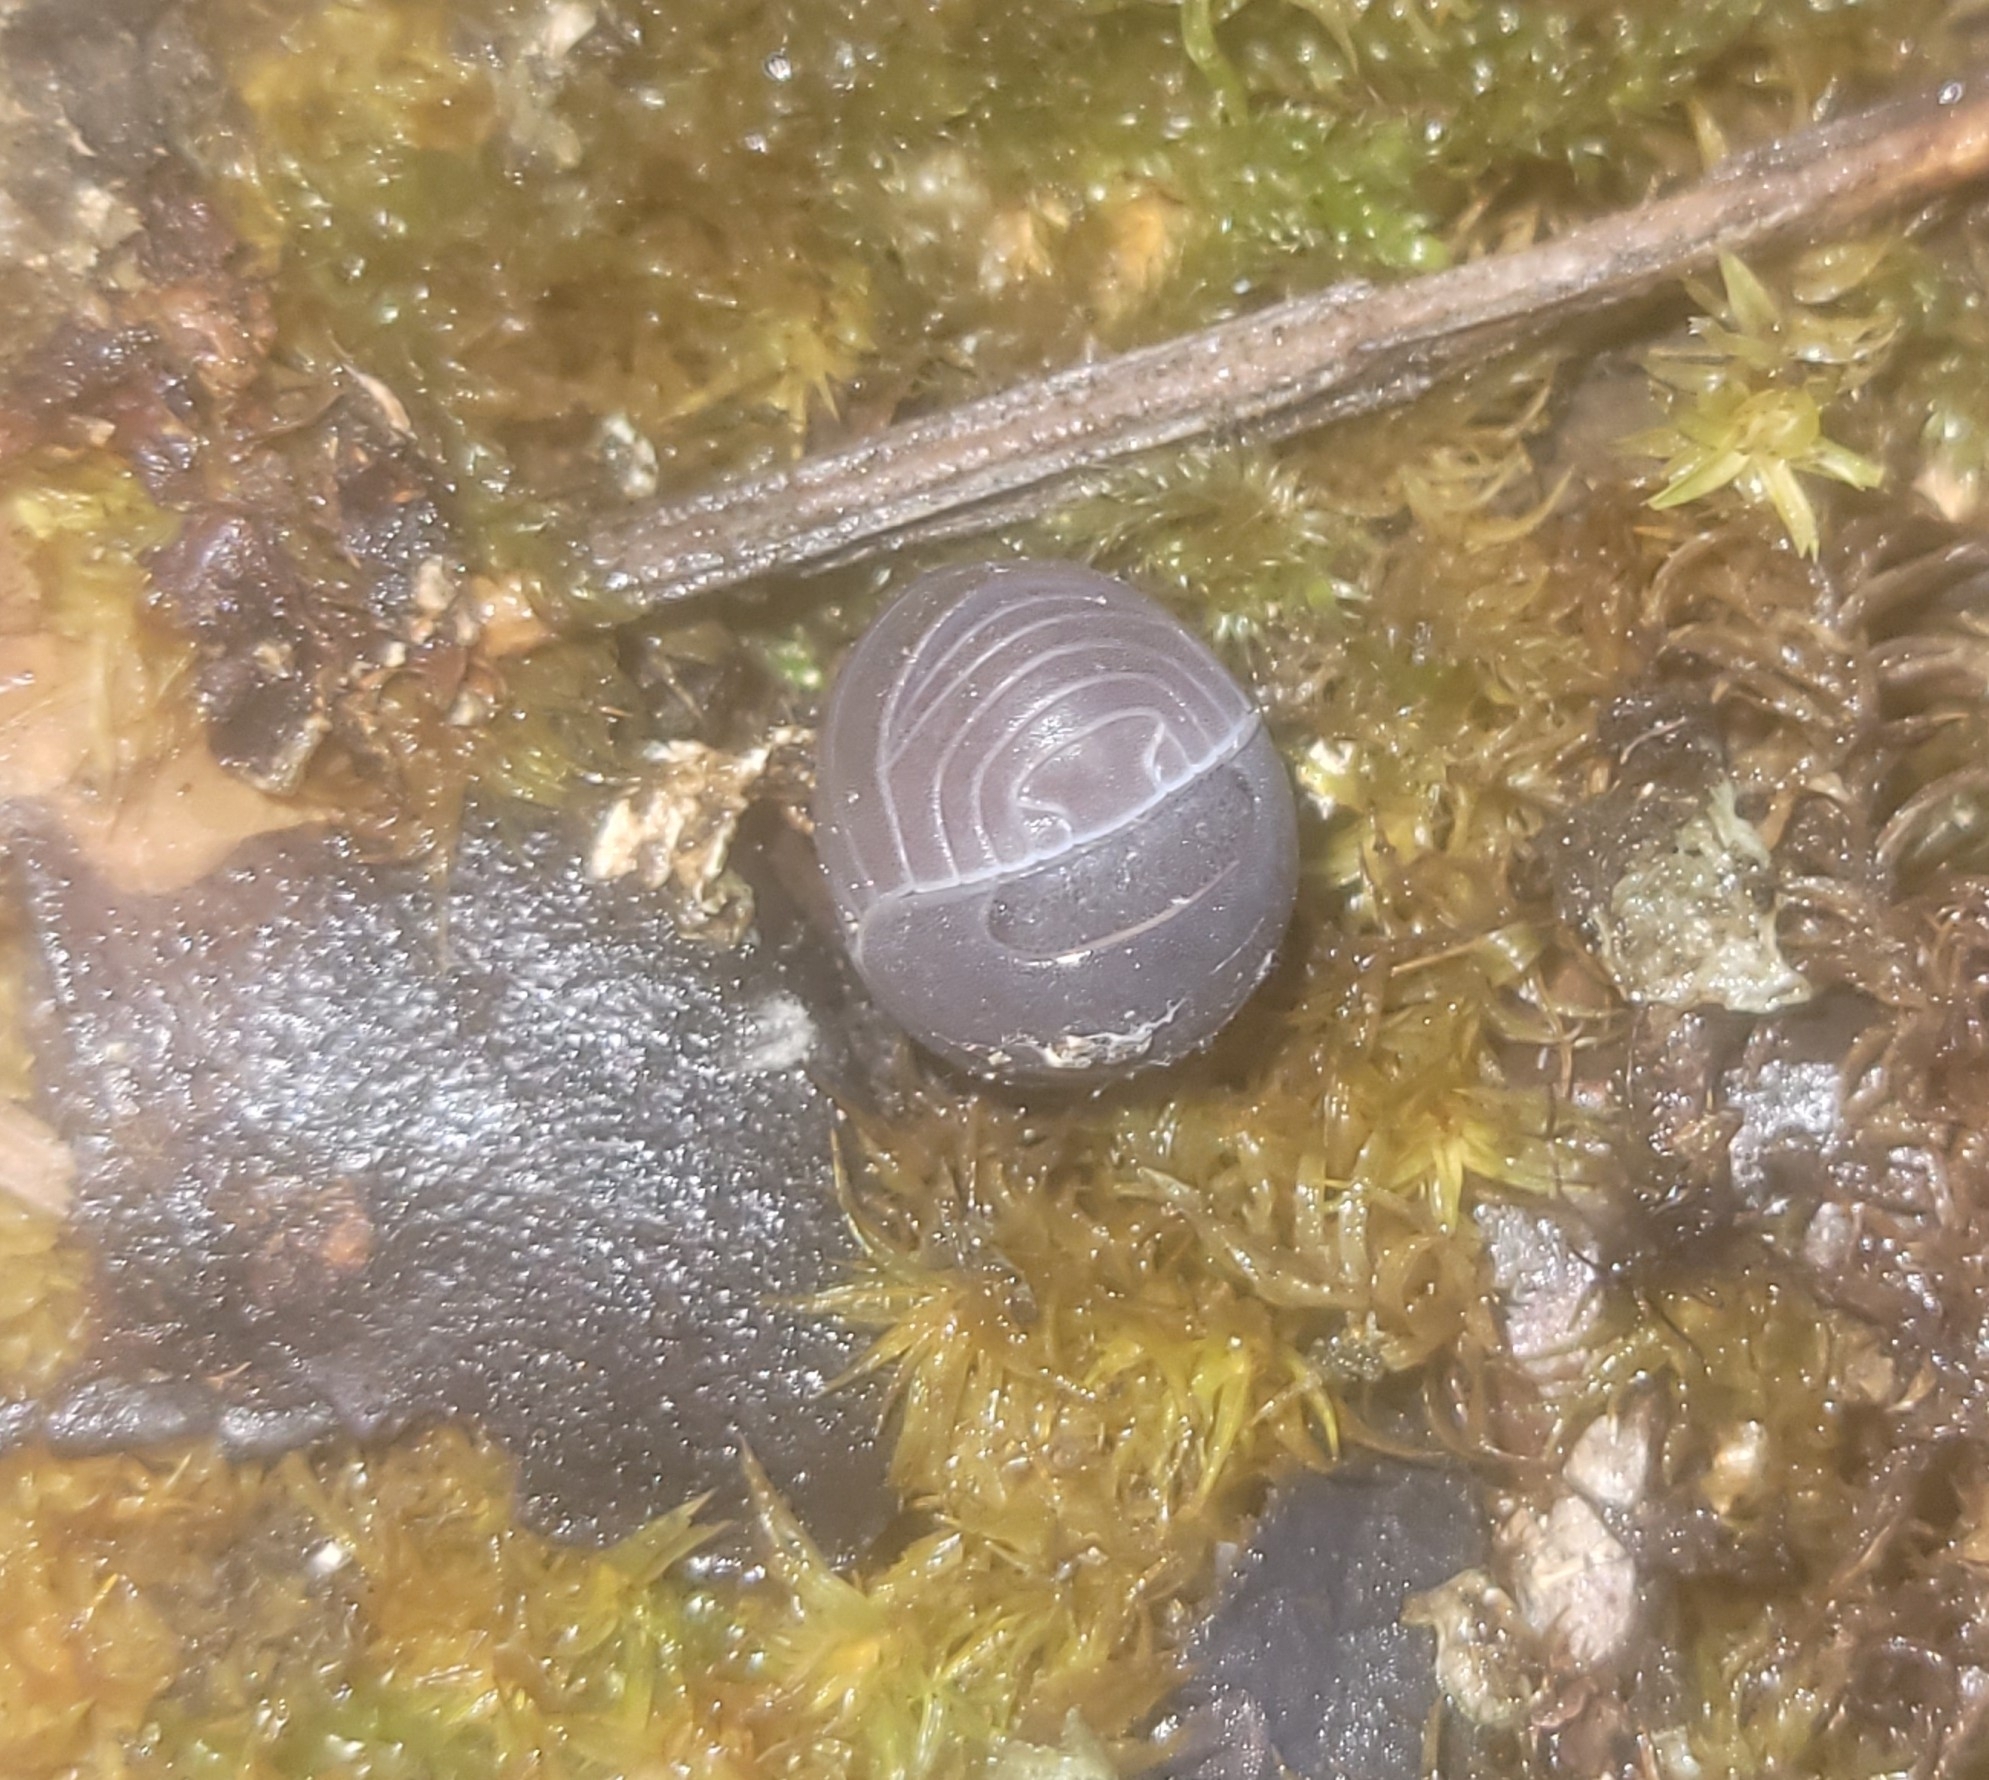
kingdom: Animalia
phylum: Arthropoda
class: Malacostraca
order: Isopoda
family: Armadillidae
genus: Armadillo
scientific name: Armadillo officinalis
